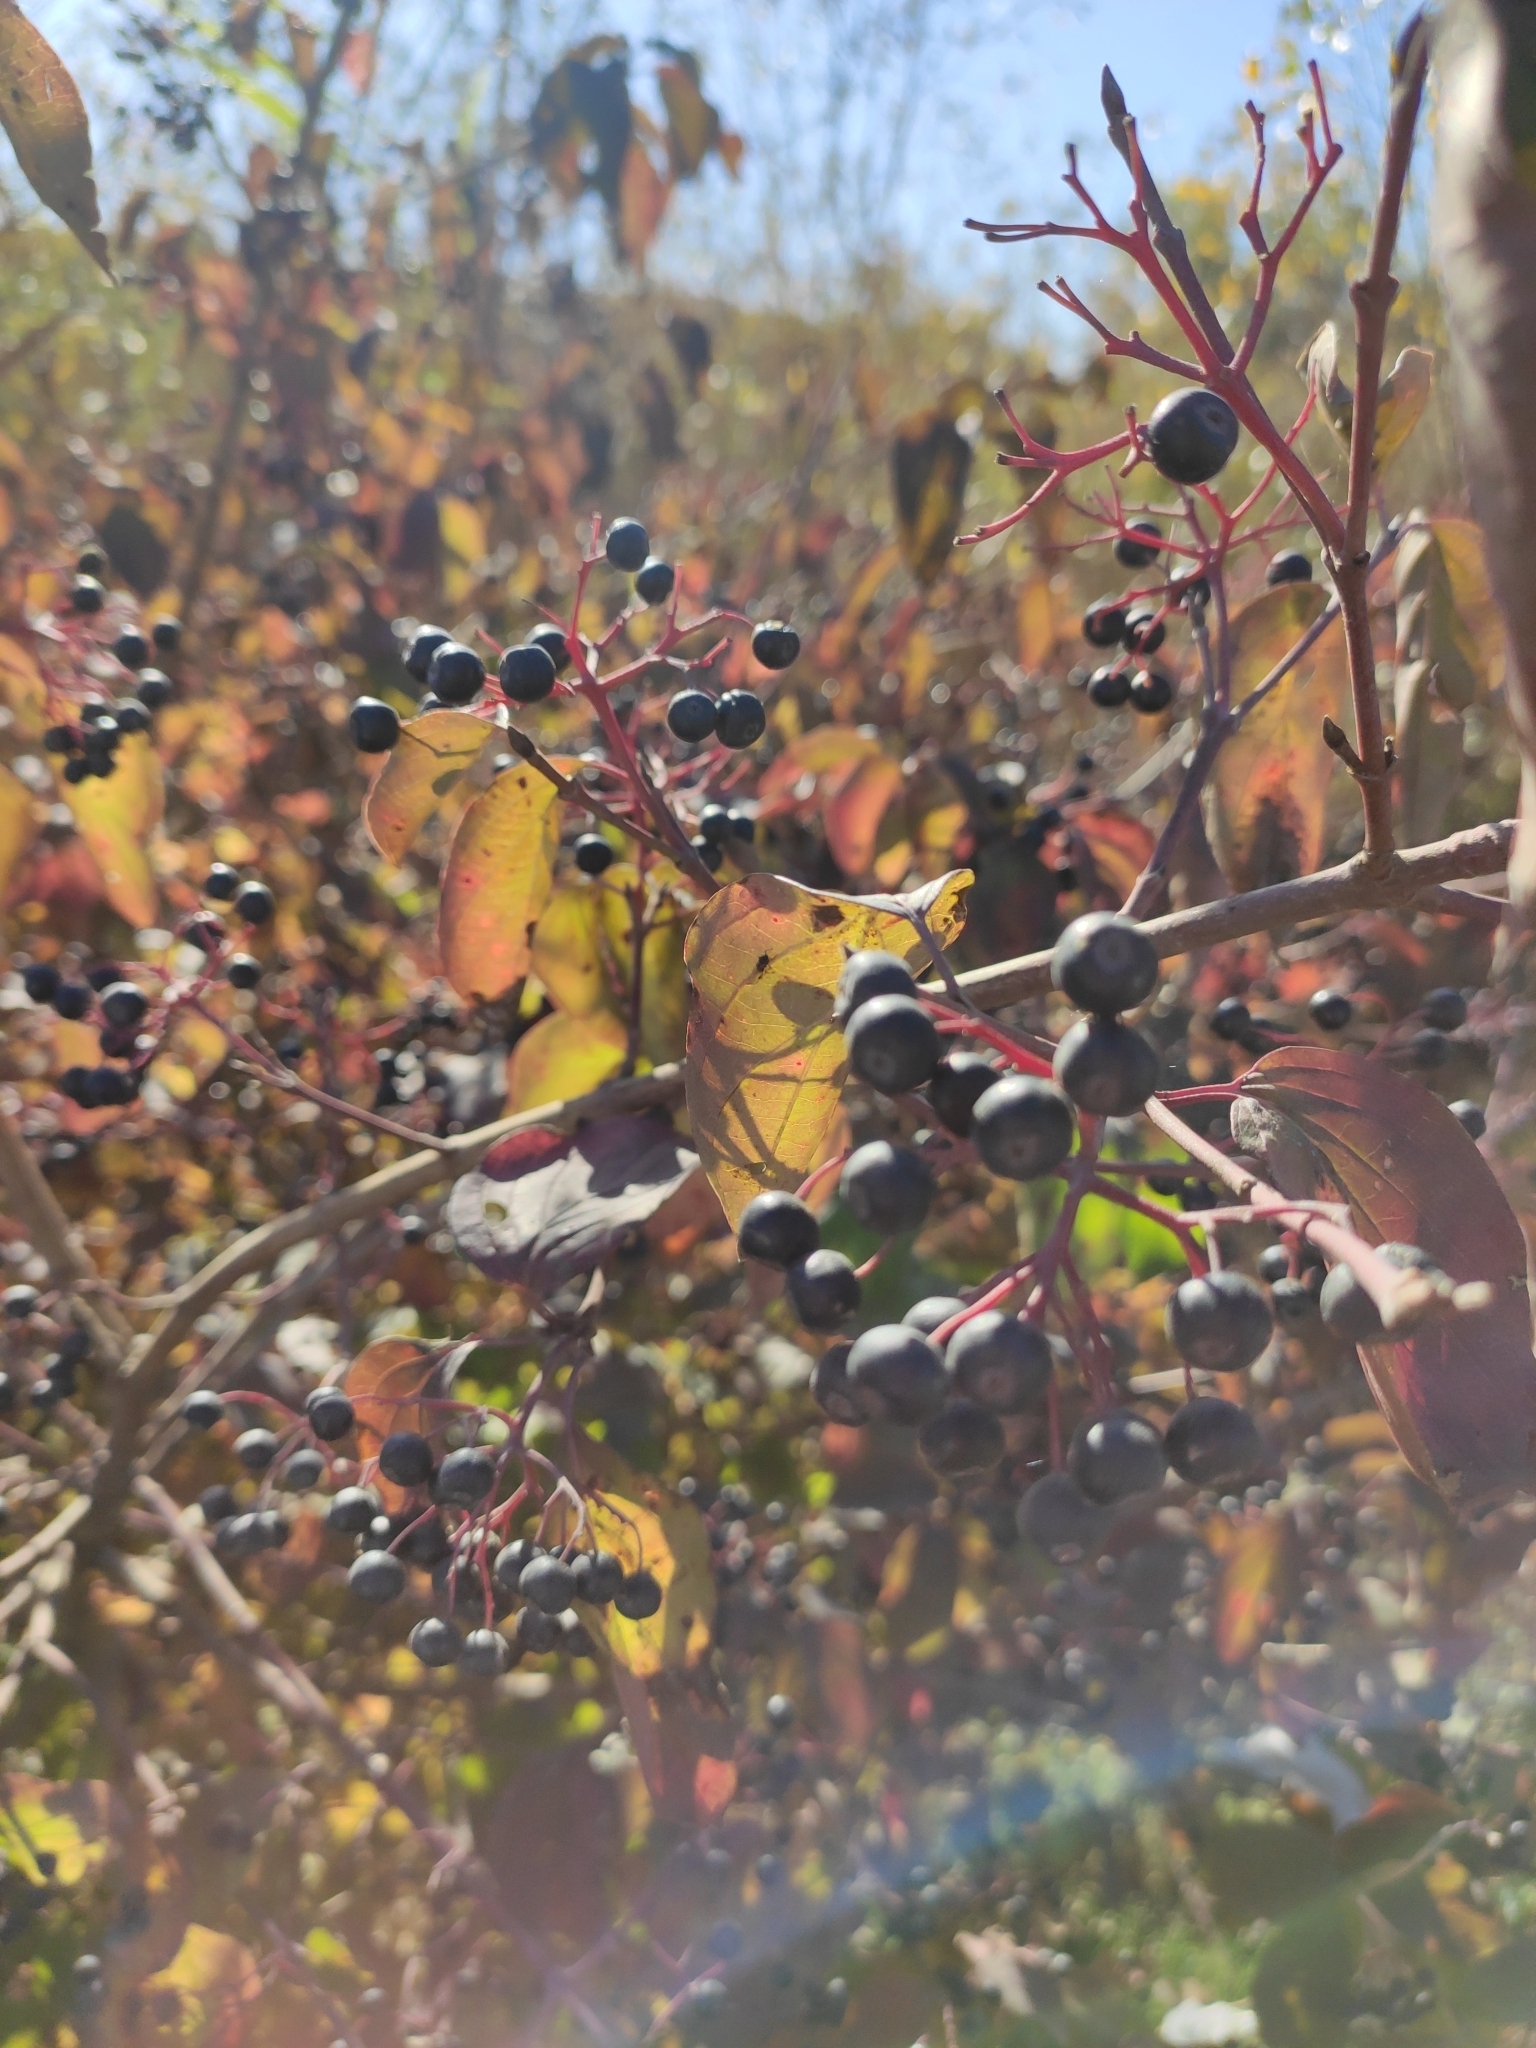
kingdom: Plantae
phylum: Tracheophyta
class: Magnoliopsida
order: Cornales
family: Cornaceae
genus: Cornus
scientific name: Cornus sanguinea
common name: Dogwood
